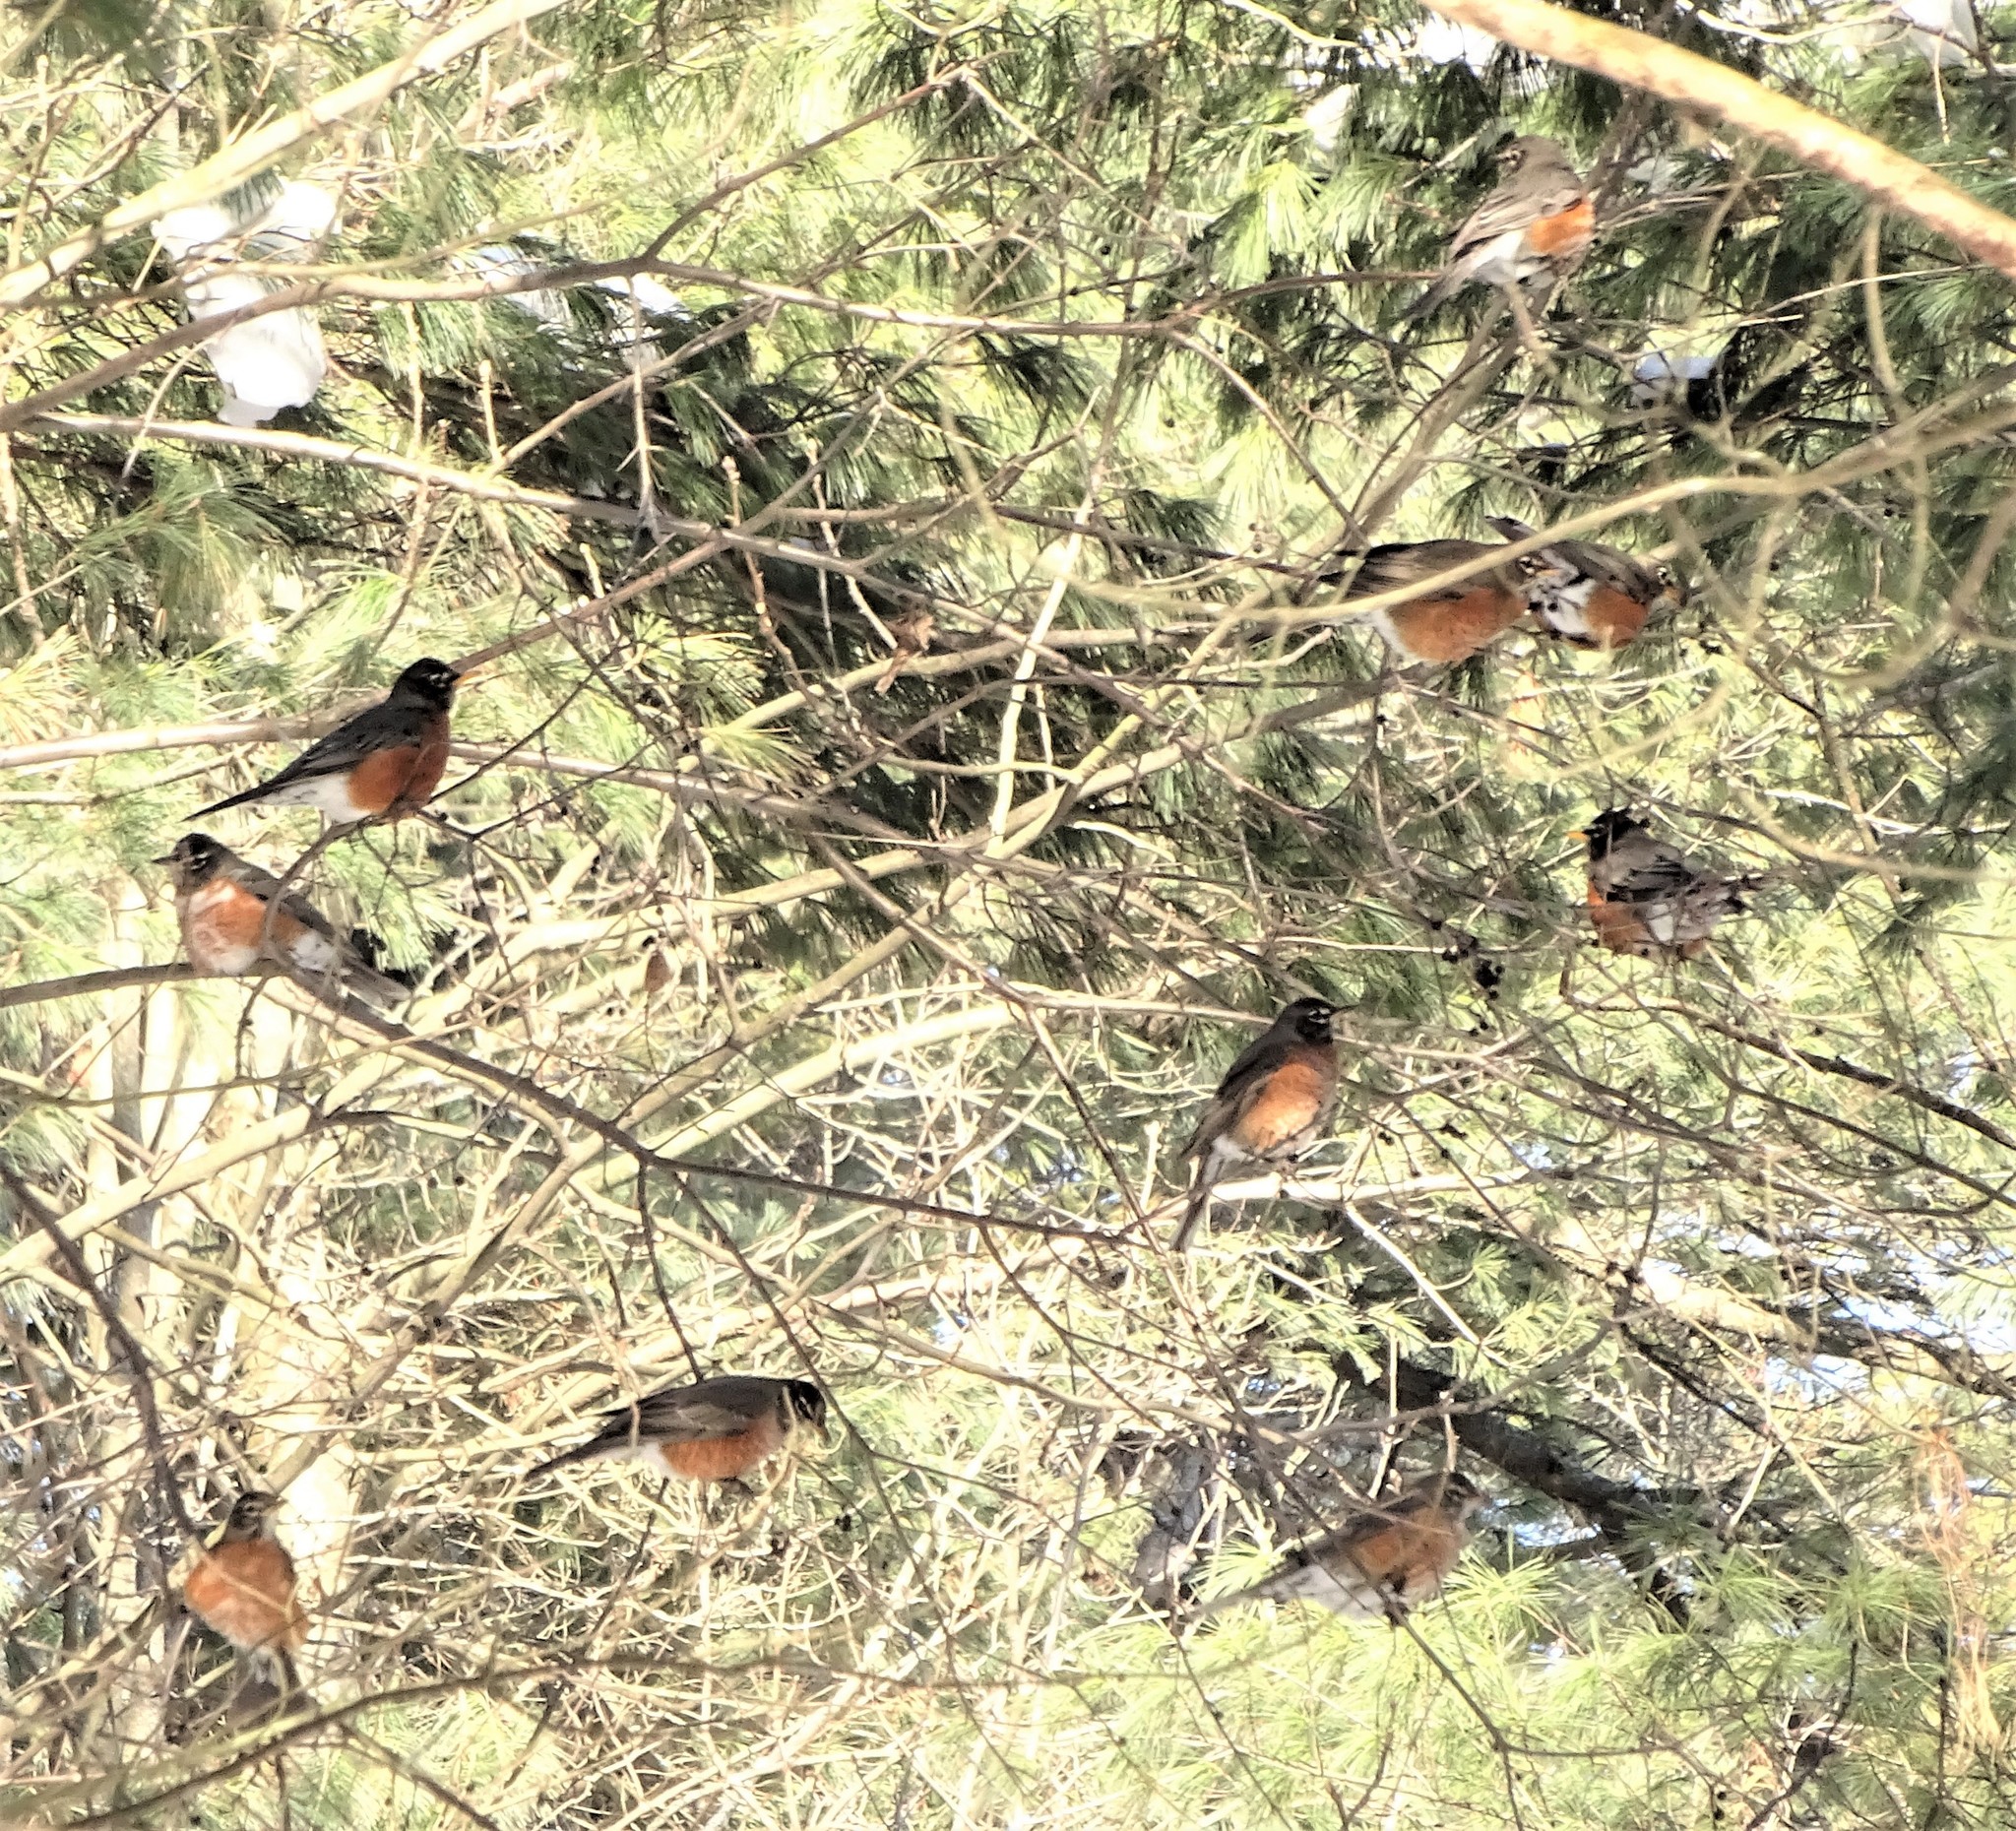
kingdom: Animalia
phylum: Chordata
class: Aves
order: Passeriformes
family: Turdidae
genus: Turdus
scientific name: Turdus migratorius
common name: American robin
